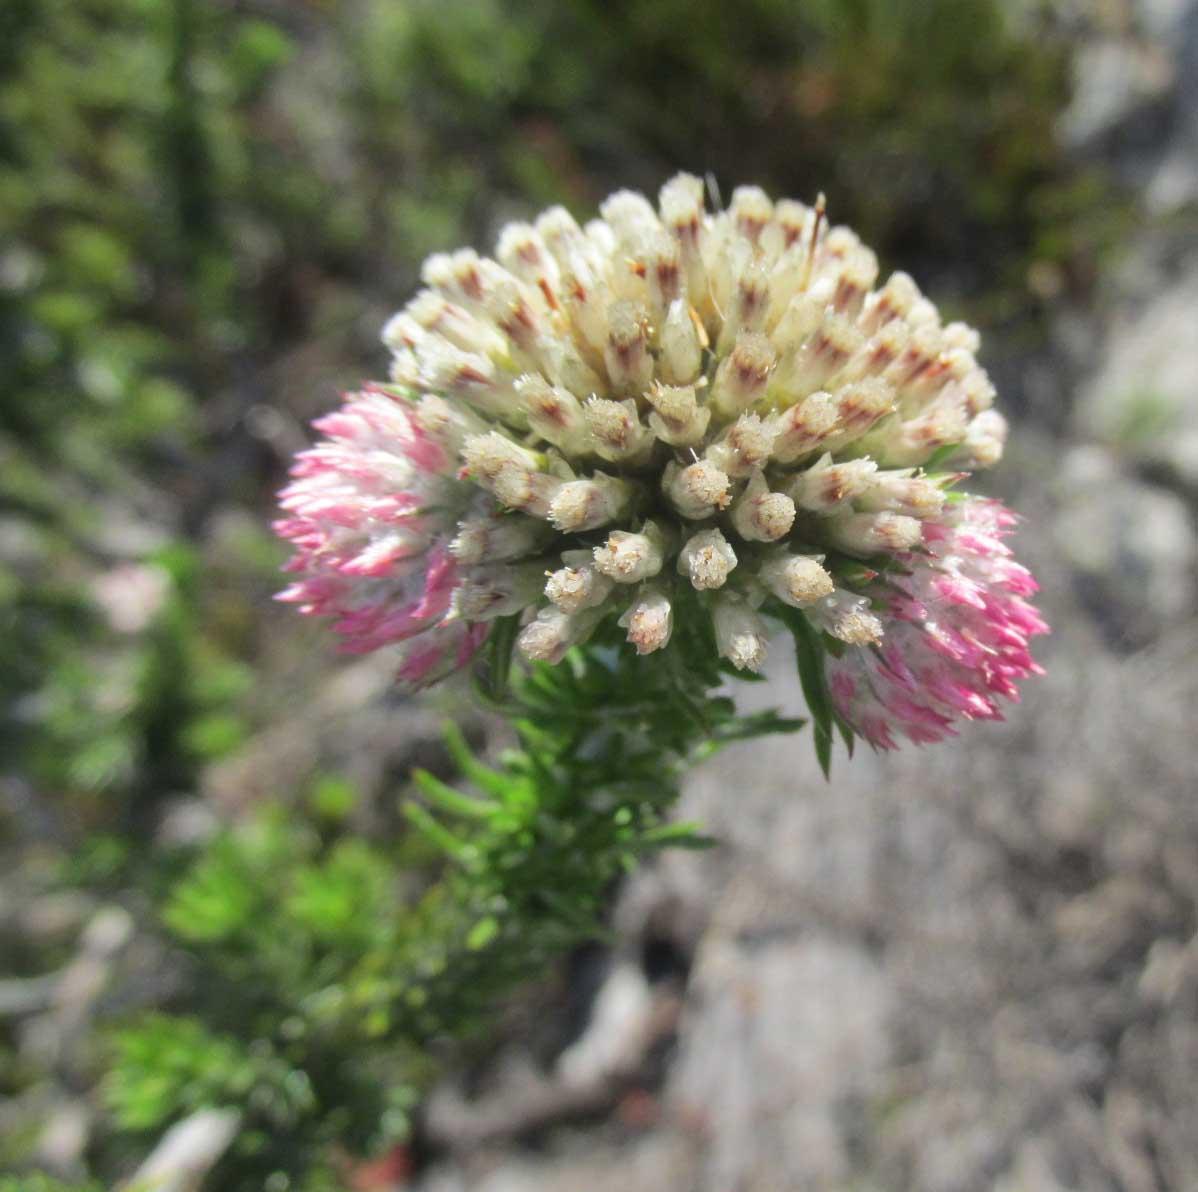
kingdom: Plantae
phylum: Tracheophyta
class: Magnoliopsida
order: Asterales
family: Asteraceae
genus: Metalasia
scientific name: Metalasia compacta
